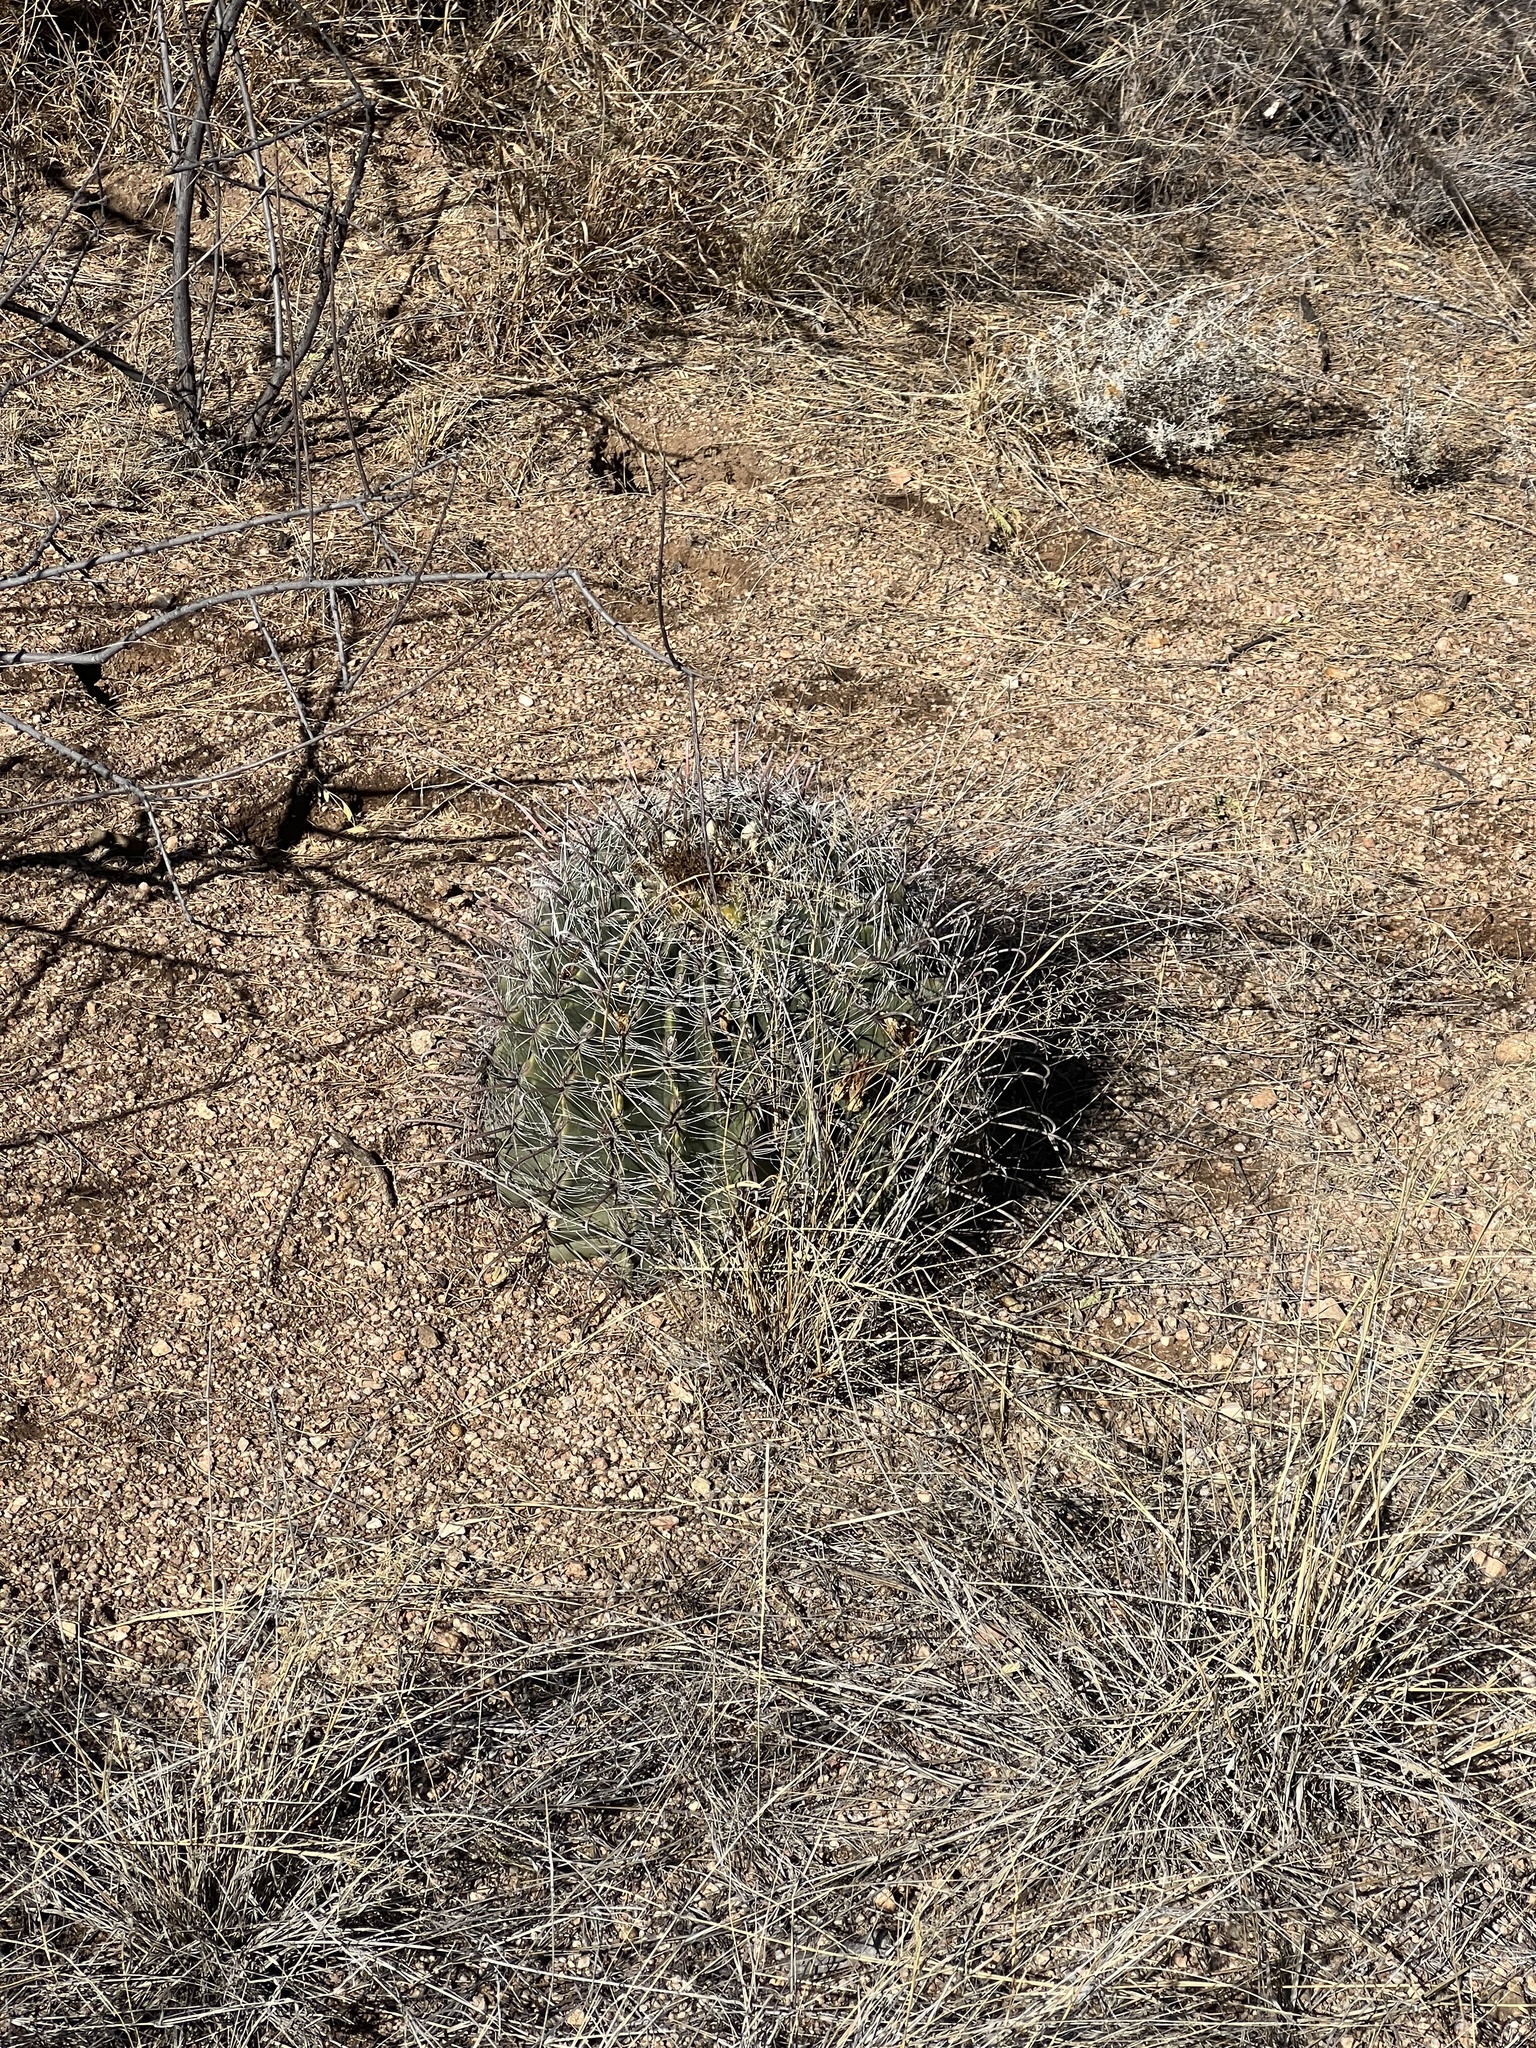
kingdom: Plantae
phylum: Tracheophyta
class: Magnoliopsida
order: Caryophyllales
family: Cactaceae
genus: Ferocactus
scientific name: Ferocactus wislizeni
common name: Candy barrel cactus
